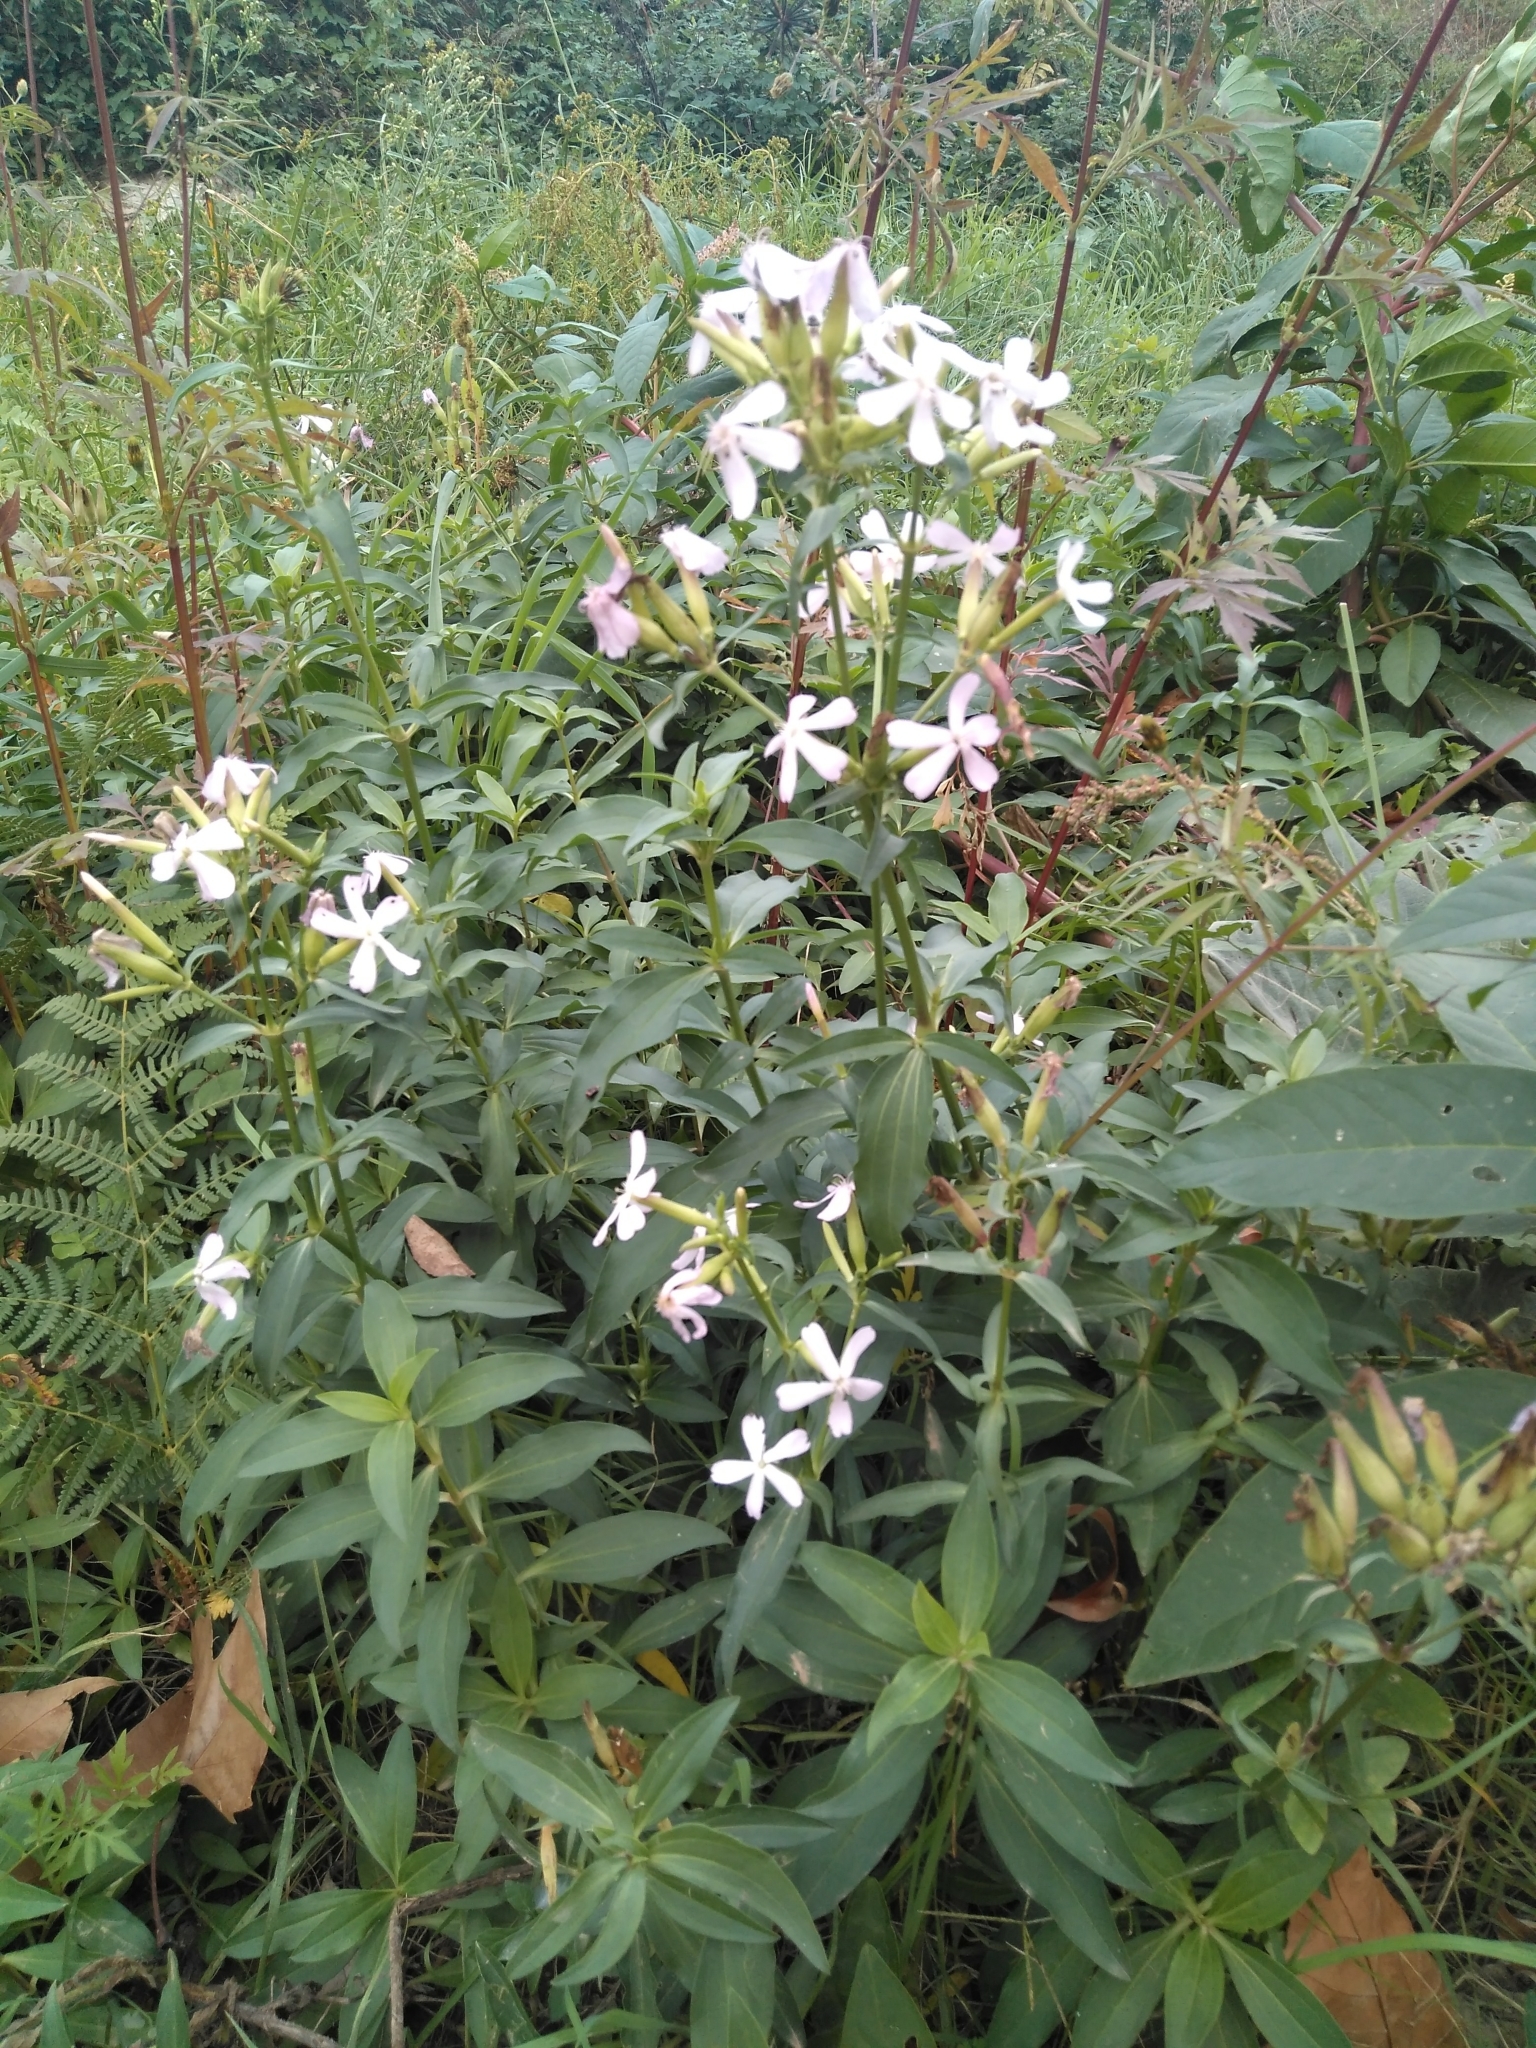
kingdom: Plantae
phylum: Tracheophyta
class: Magnoliopsida
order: Caryophyllales
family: Caryophyllaceae
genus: Saponaria
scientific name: Saponaria officinalis
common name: Soapwort
